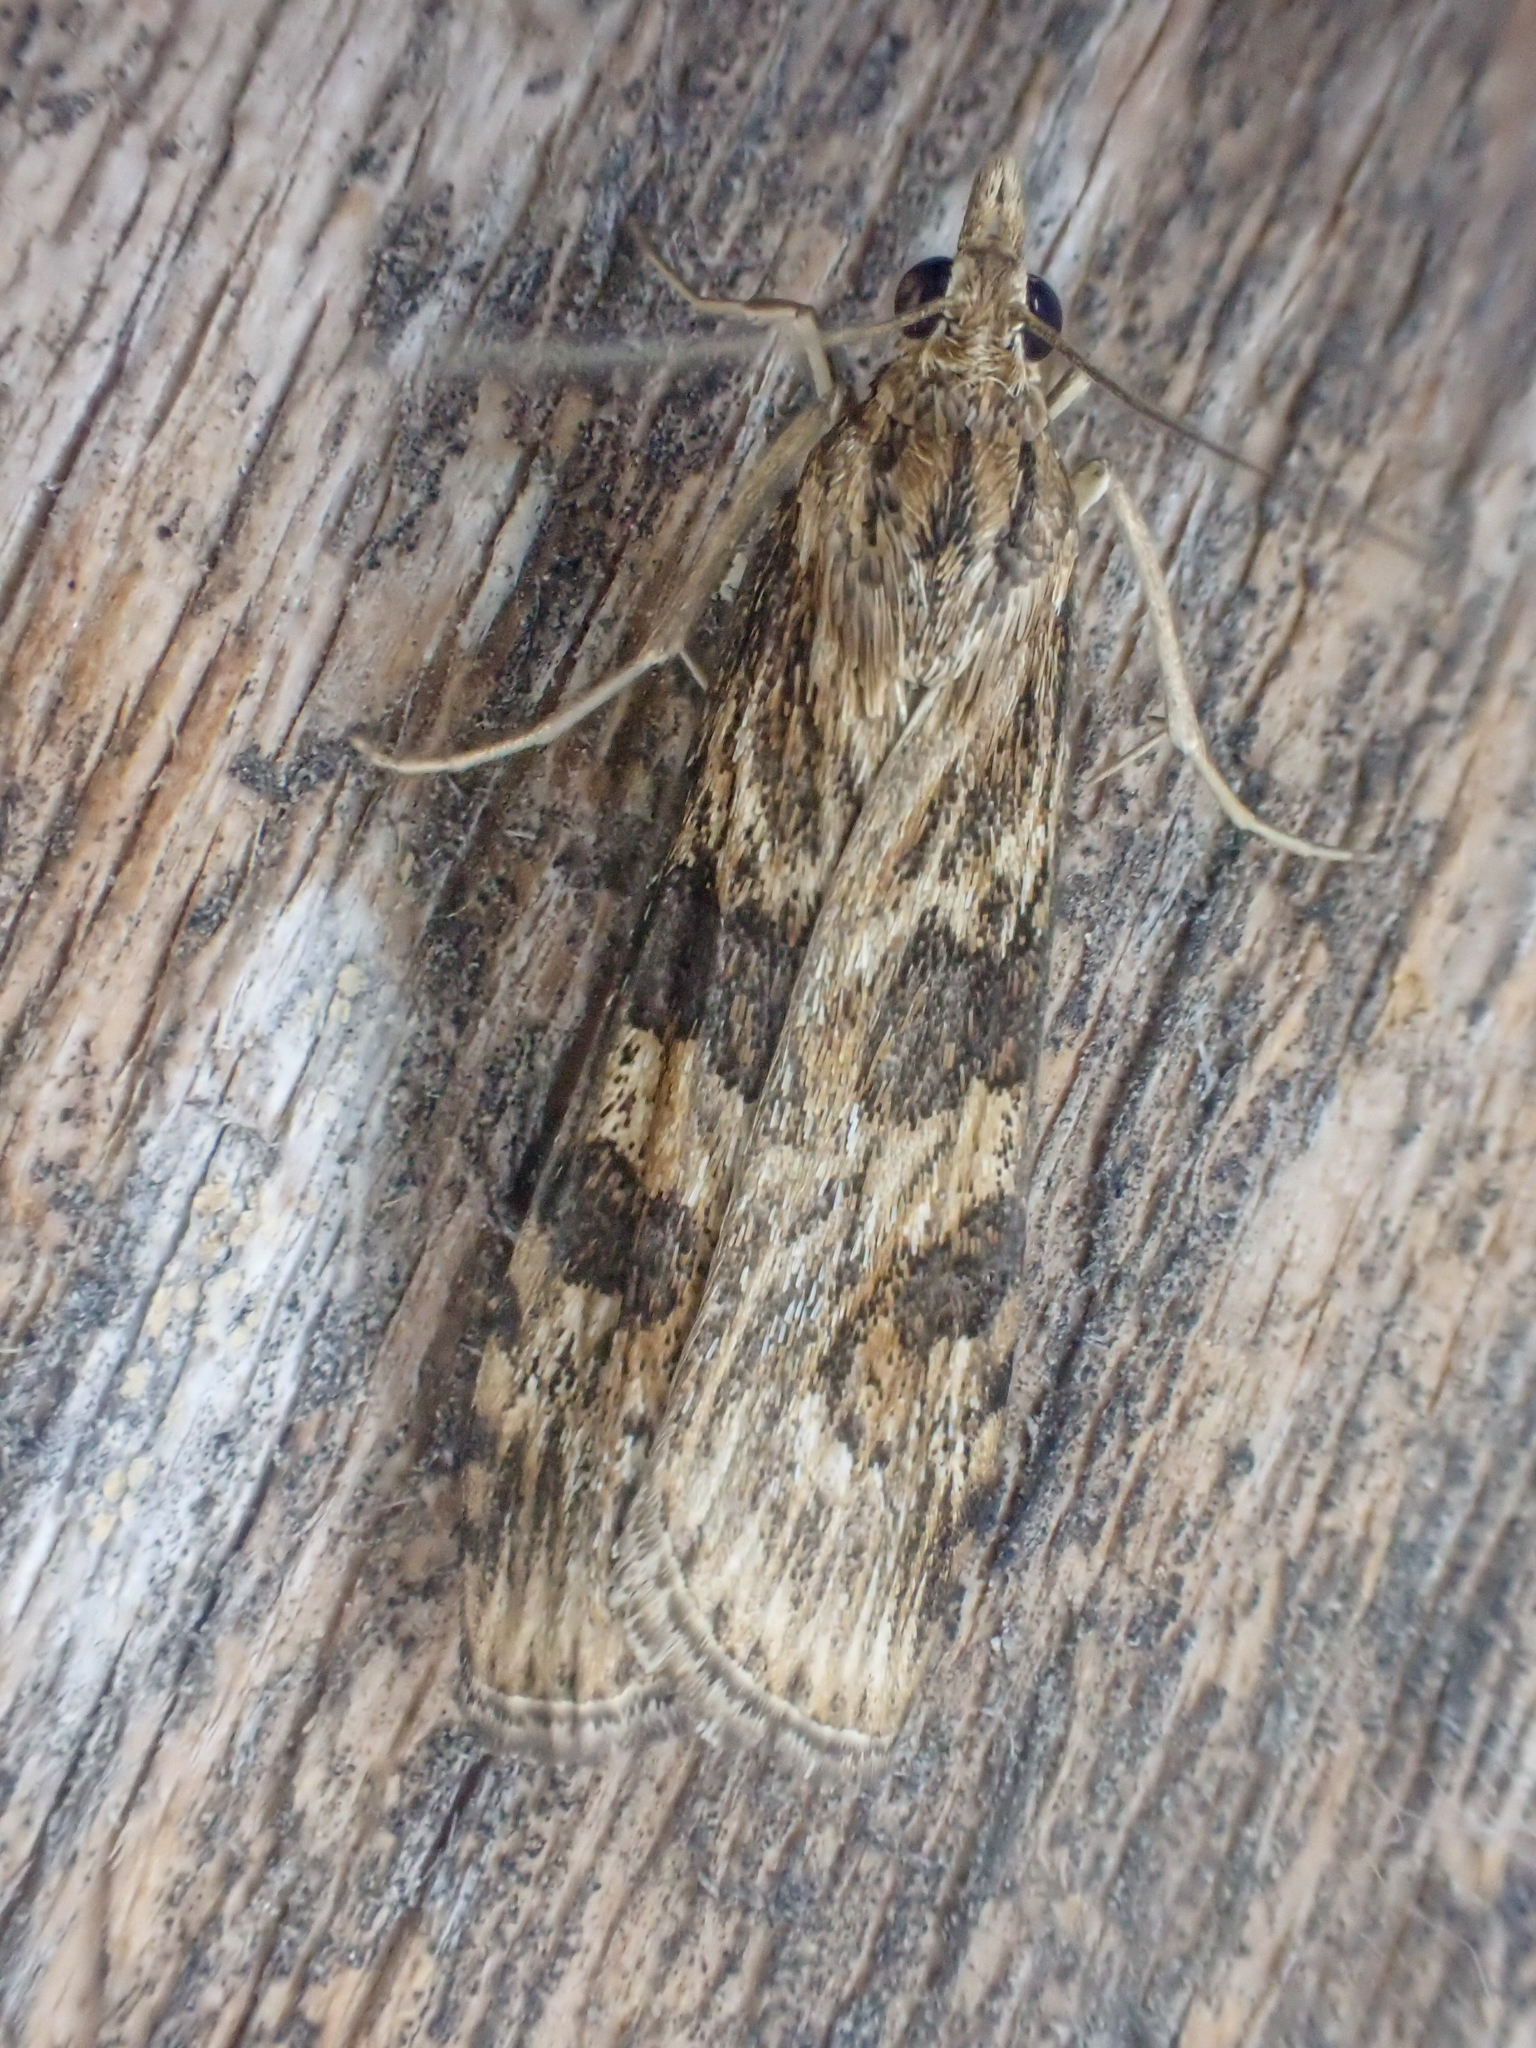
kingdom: Animalia
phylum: Arthropoda
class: Insecta
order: Lepidoptera
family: Crambidae
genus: Nomophila
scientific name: Nomophila nearctica
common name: American rush veneer
